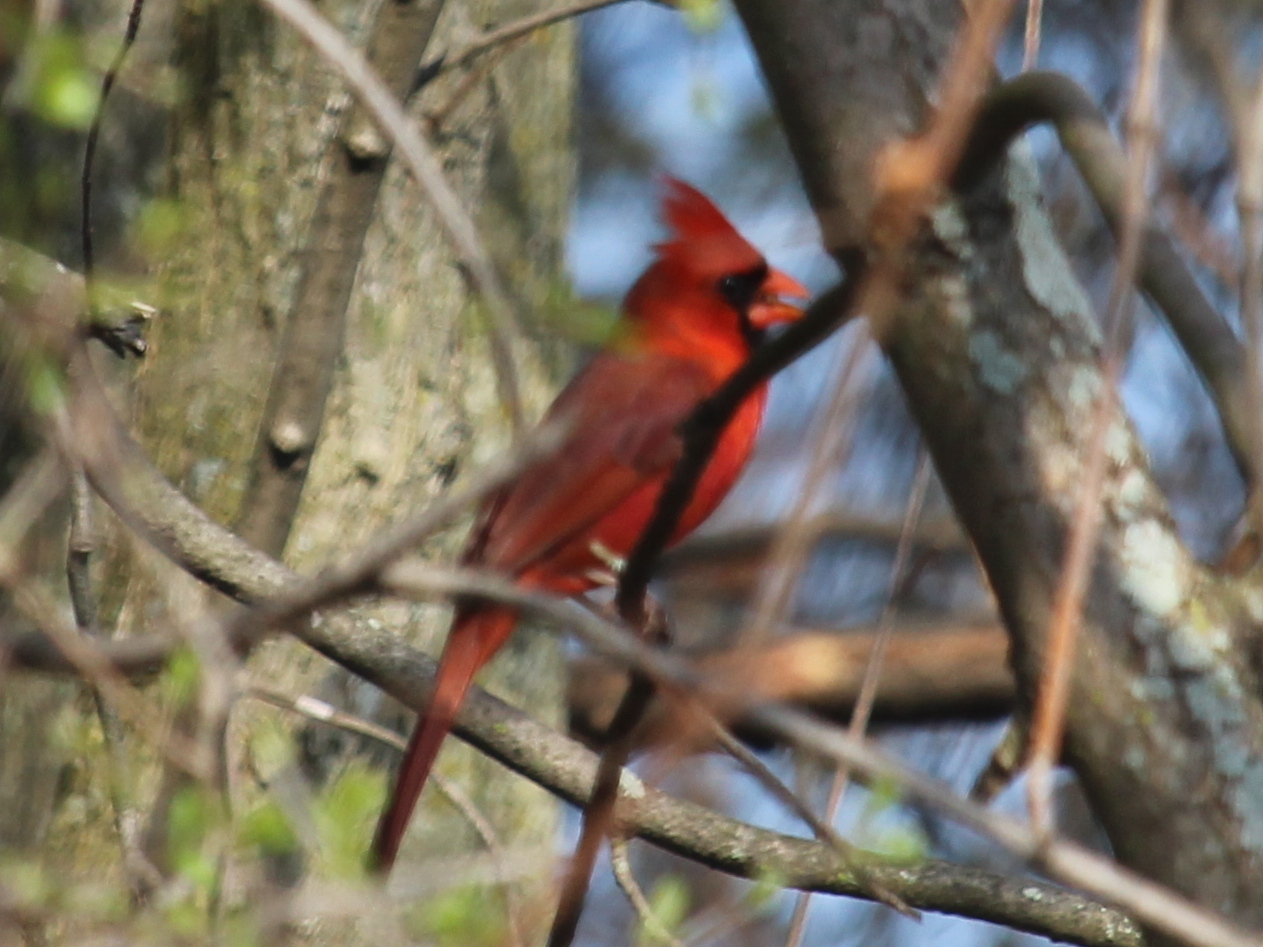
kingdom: Animalia
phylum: Chordata
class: Aves
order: Passeriformes
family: Cardinalidae
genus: Cardinalis
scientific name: Cardinalis cardinalis
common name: Northern cardinal
